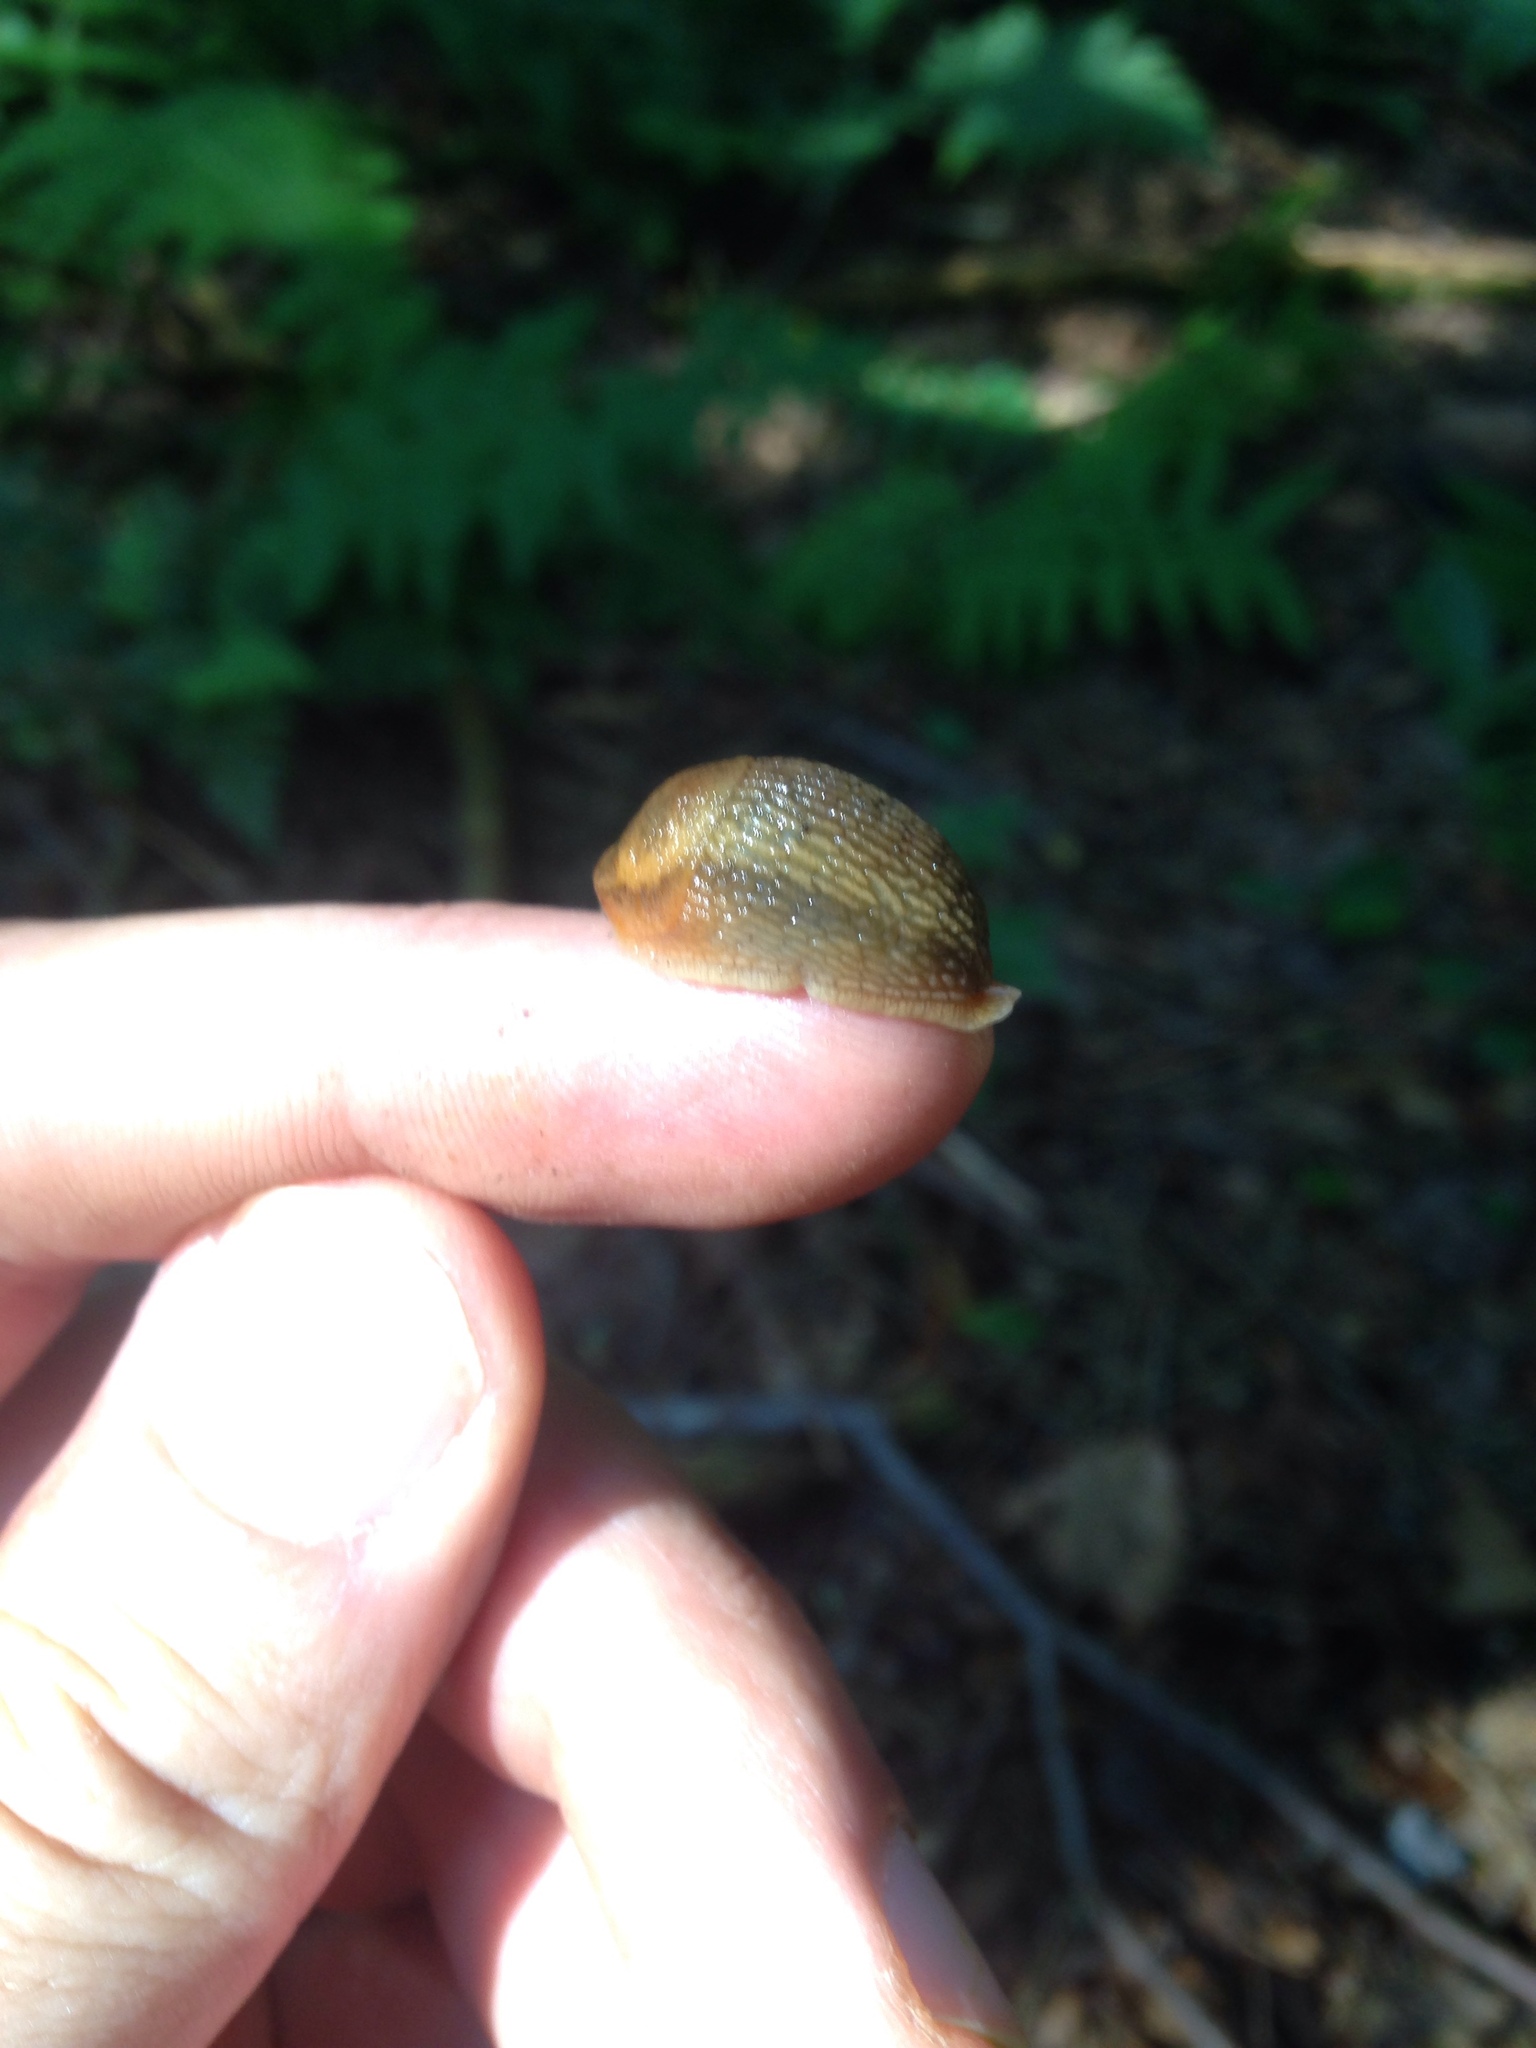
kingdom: Animalia
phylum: Mollusca
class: Gastropoda
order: Stylommatophora
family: Arionidae
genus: Arion
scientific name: Arion subfuscus
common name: Dusky arion
